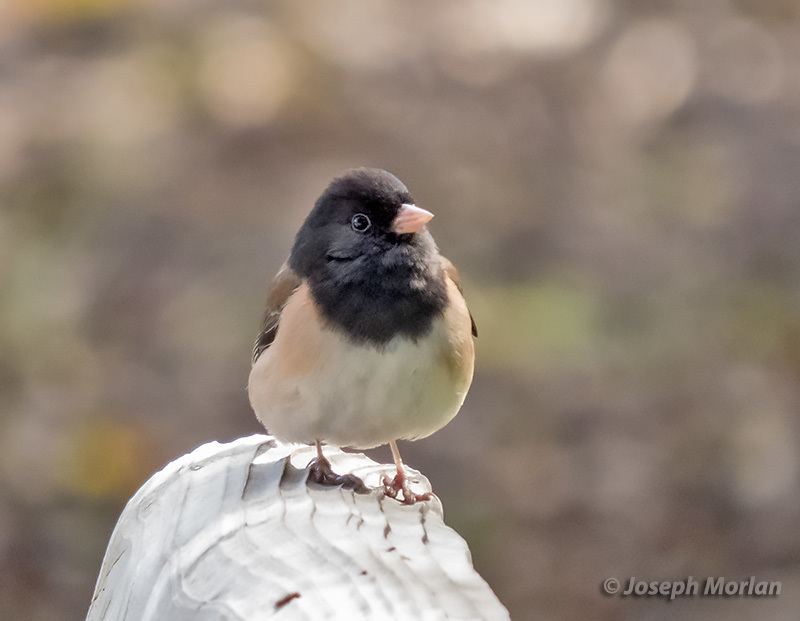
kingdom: Animalia
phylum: Chordata
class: Aves
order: Passeriformes
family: Passerellidae
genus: Junco
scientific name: Junco hyemalis
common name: Dark-eyed junco
